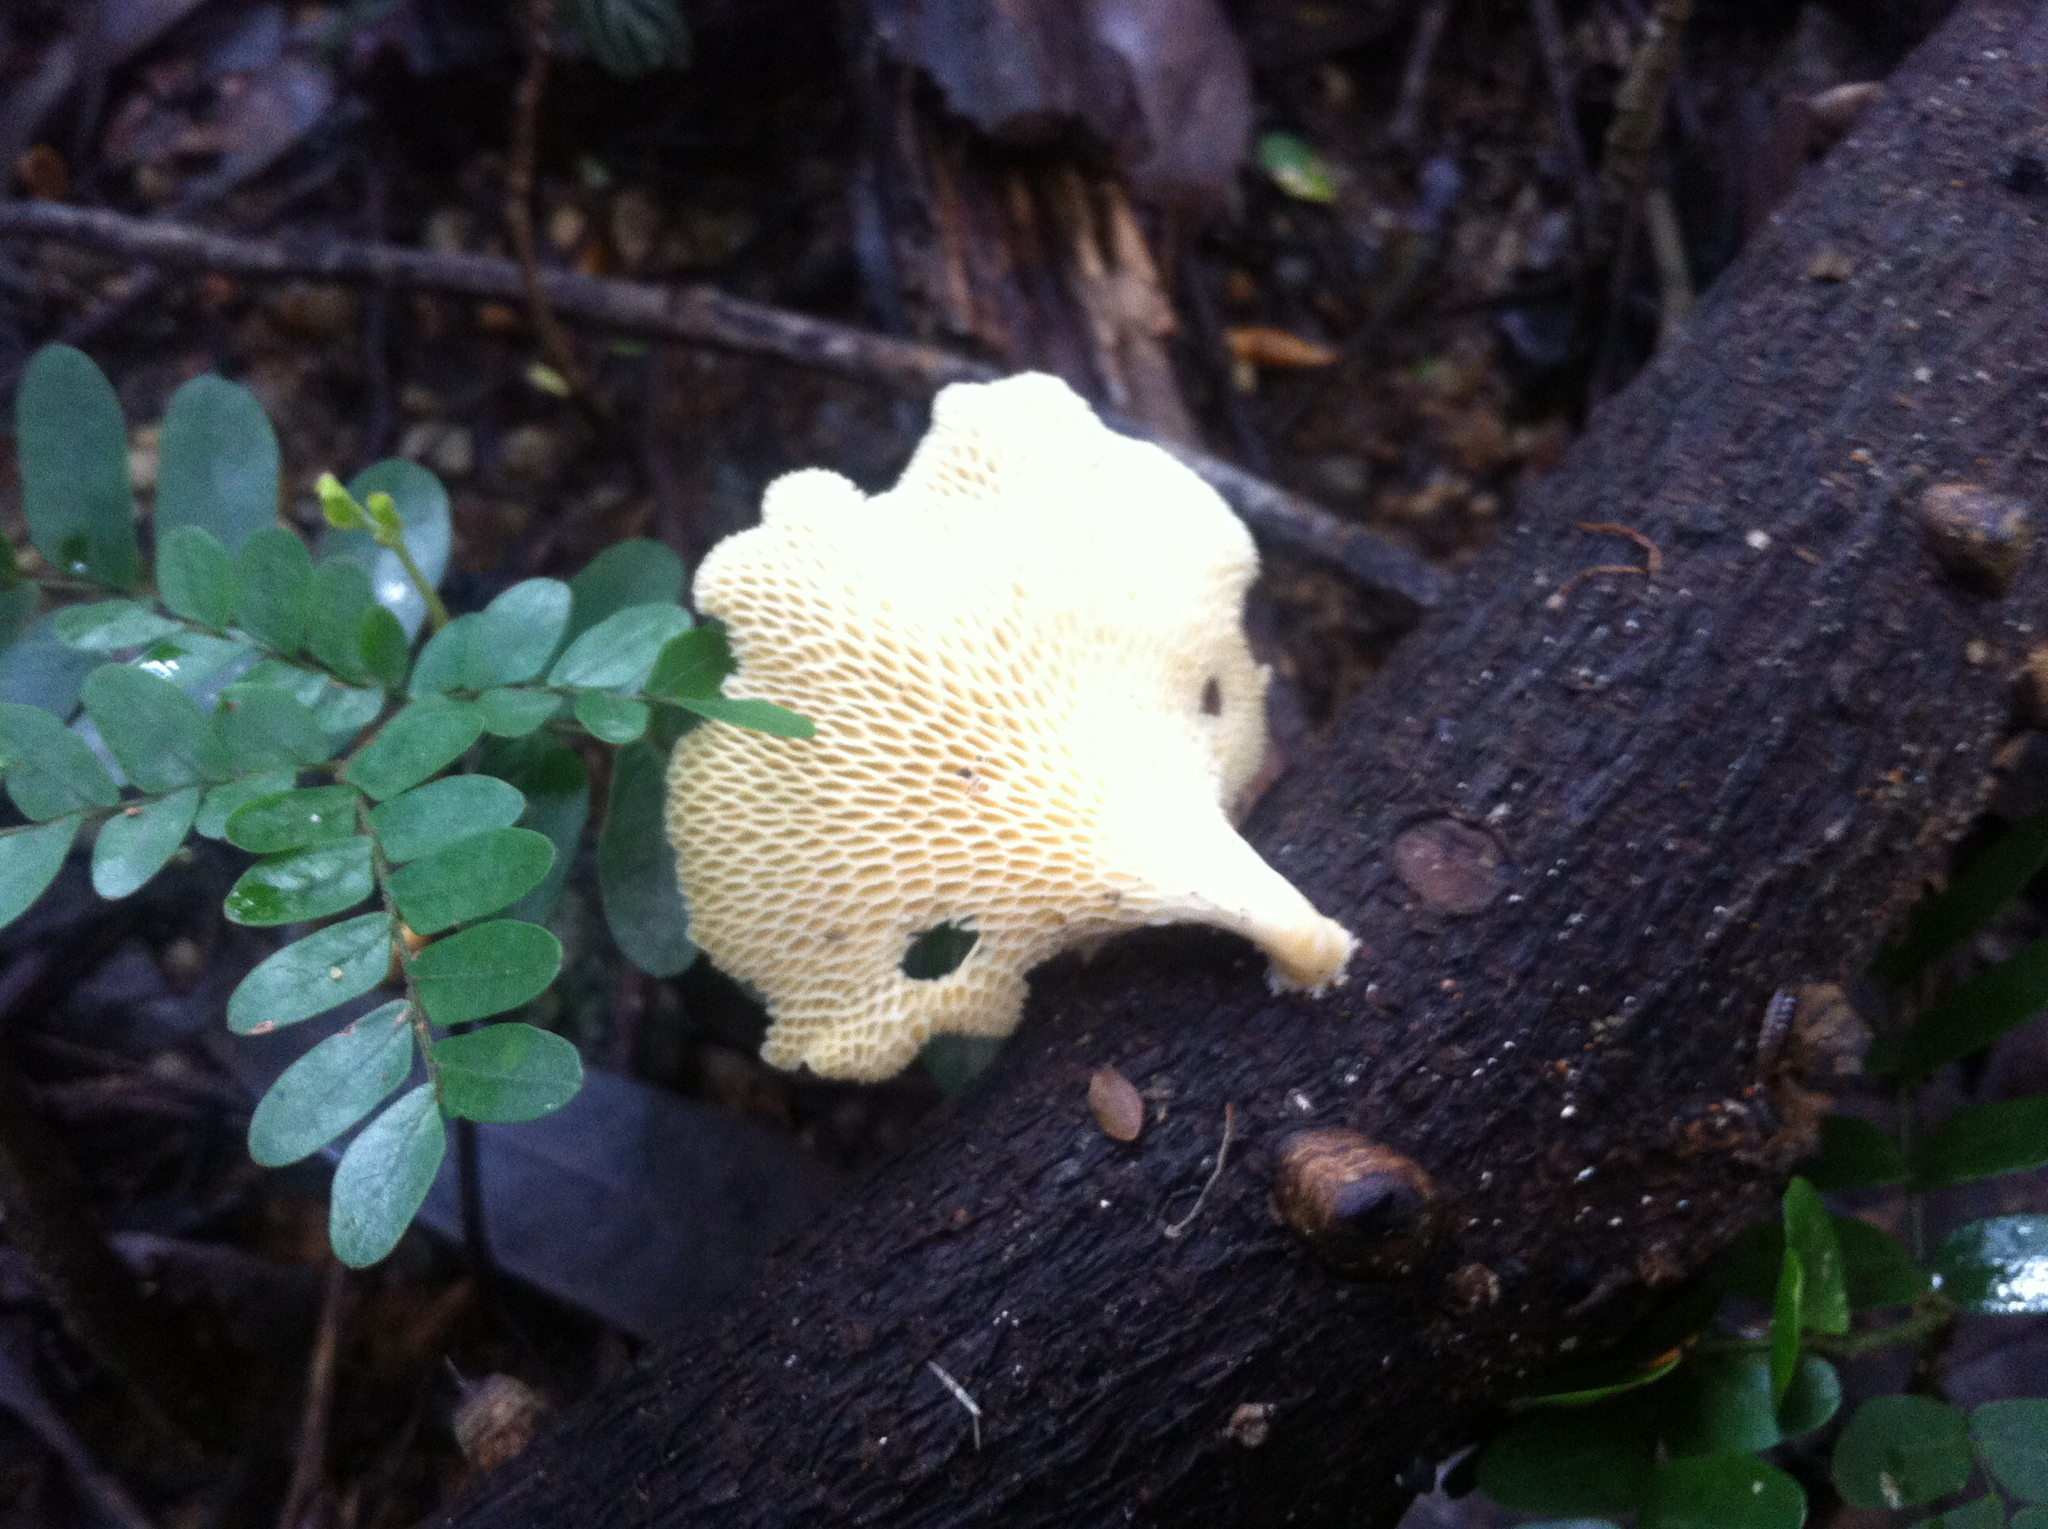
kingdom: Fungi
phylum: Basidiomycota
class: Agaricomycetes
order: Polyporales
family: Polyporaceae
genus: Favolus
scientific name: Favolus tenuiculus
